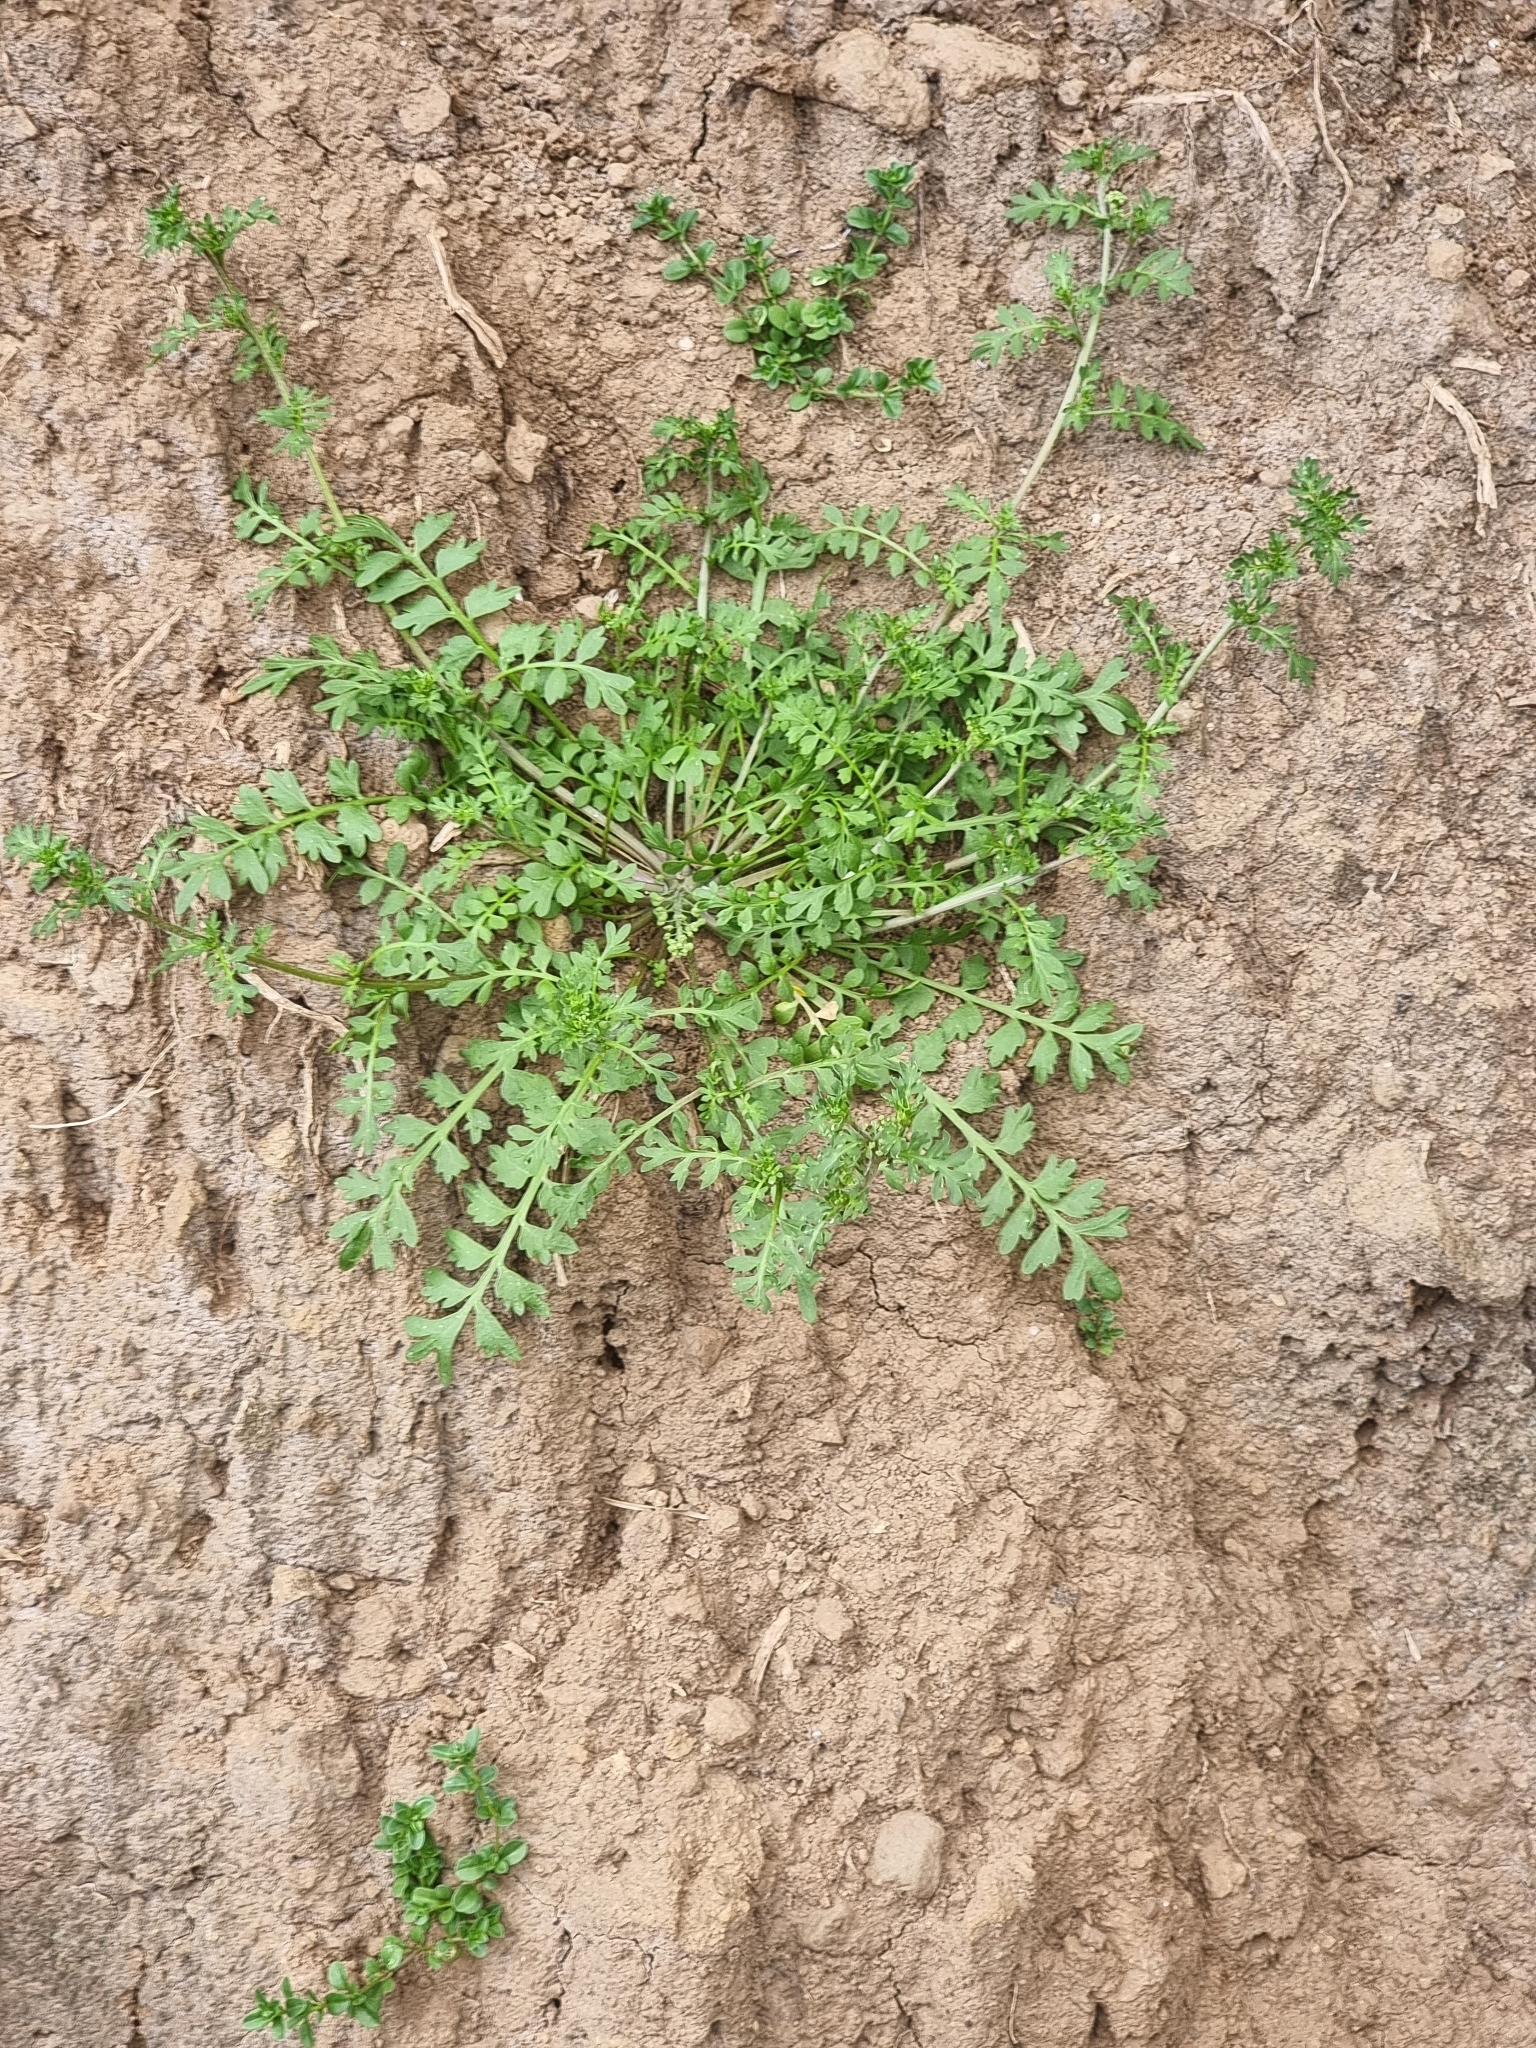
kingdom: Plantae
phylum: Tracheophyta
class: Magnoliopsida
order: Brassicales
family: Brassicaceae
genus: Lepidium
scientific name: Lepidium didymum
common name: Lesser swinecress
